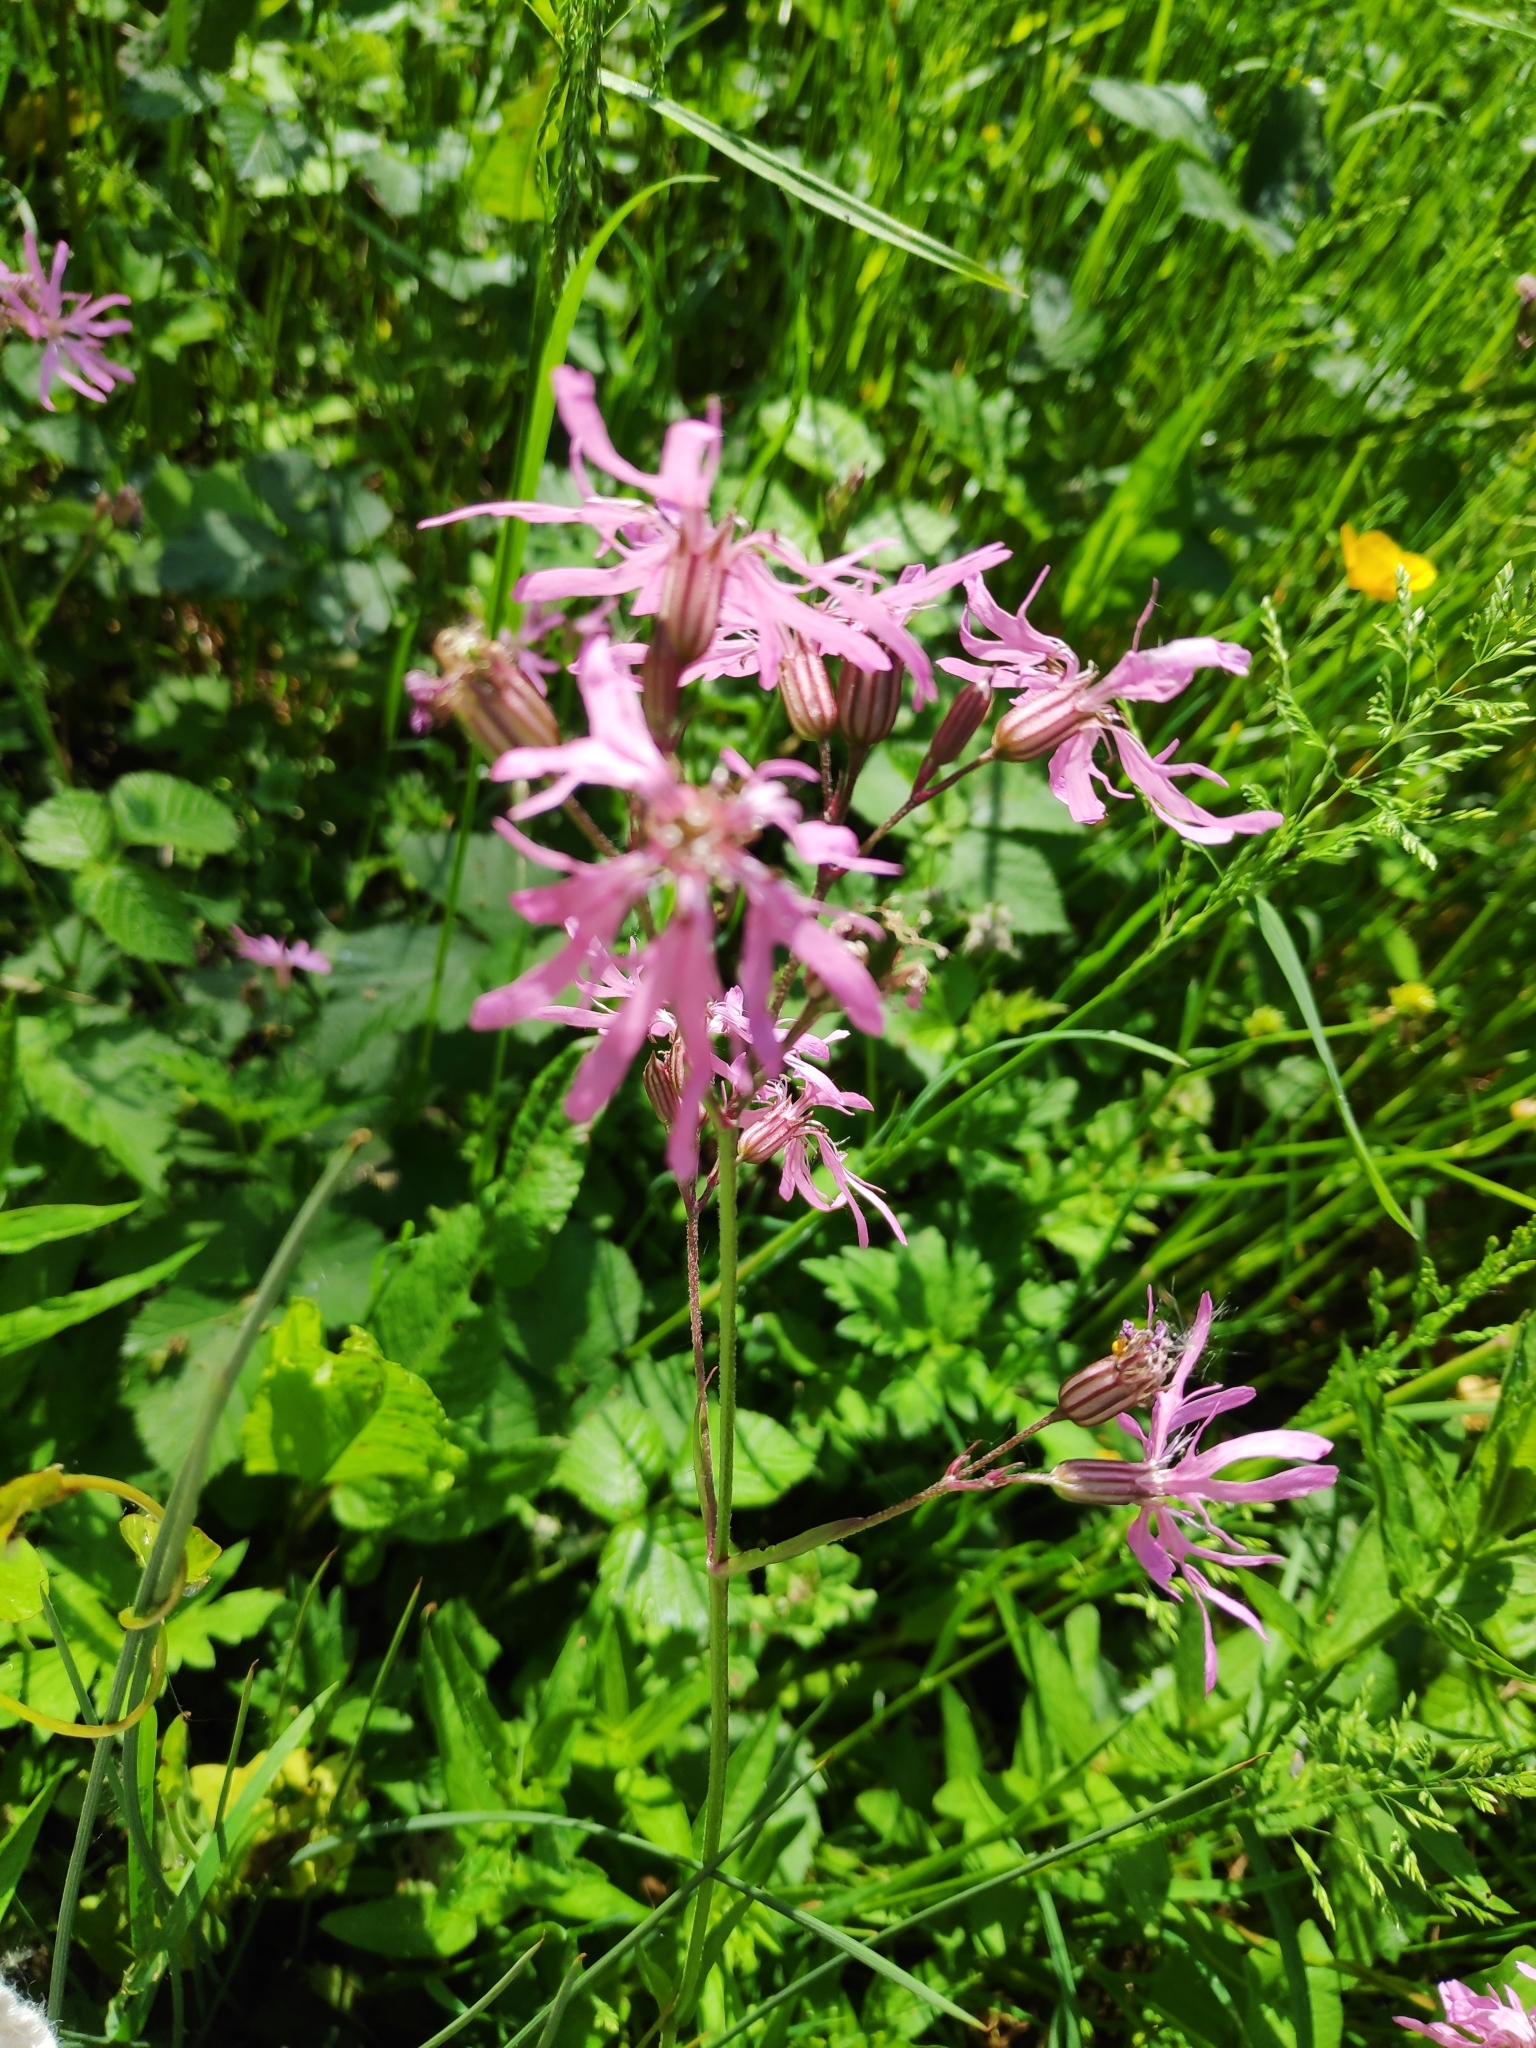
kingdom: Plantae
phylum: Tracheophyta
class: Magnoliopsida
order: Caryophyllales
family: Caryophyllaceae
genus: Silene
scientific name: Silene flos-cuculi
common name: Ragged-robin
